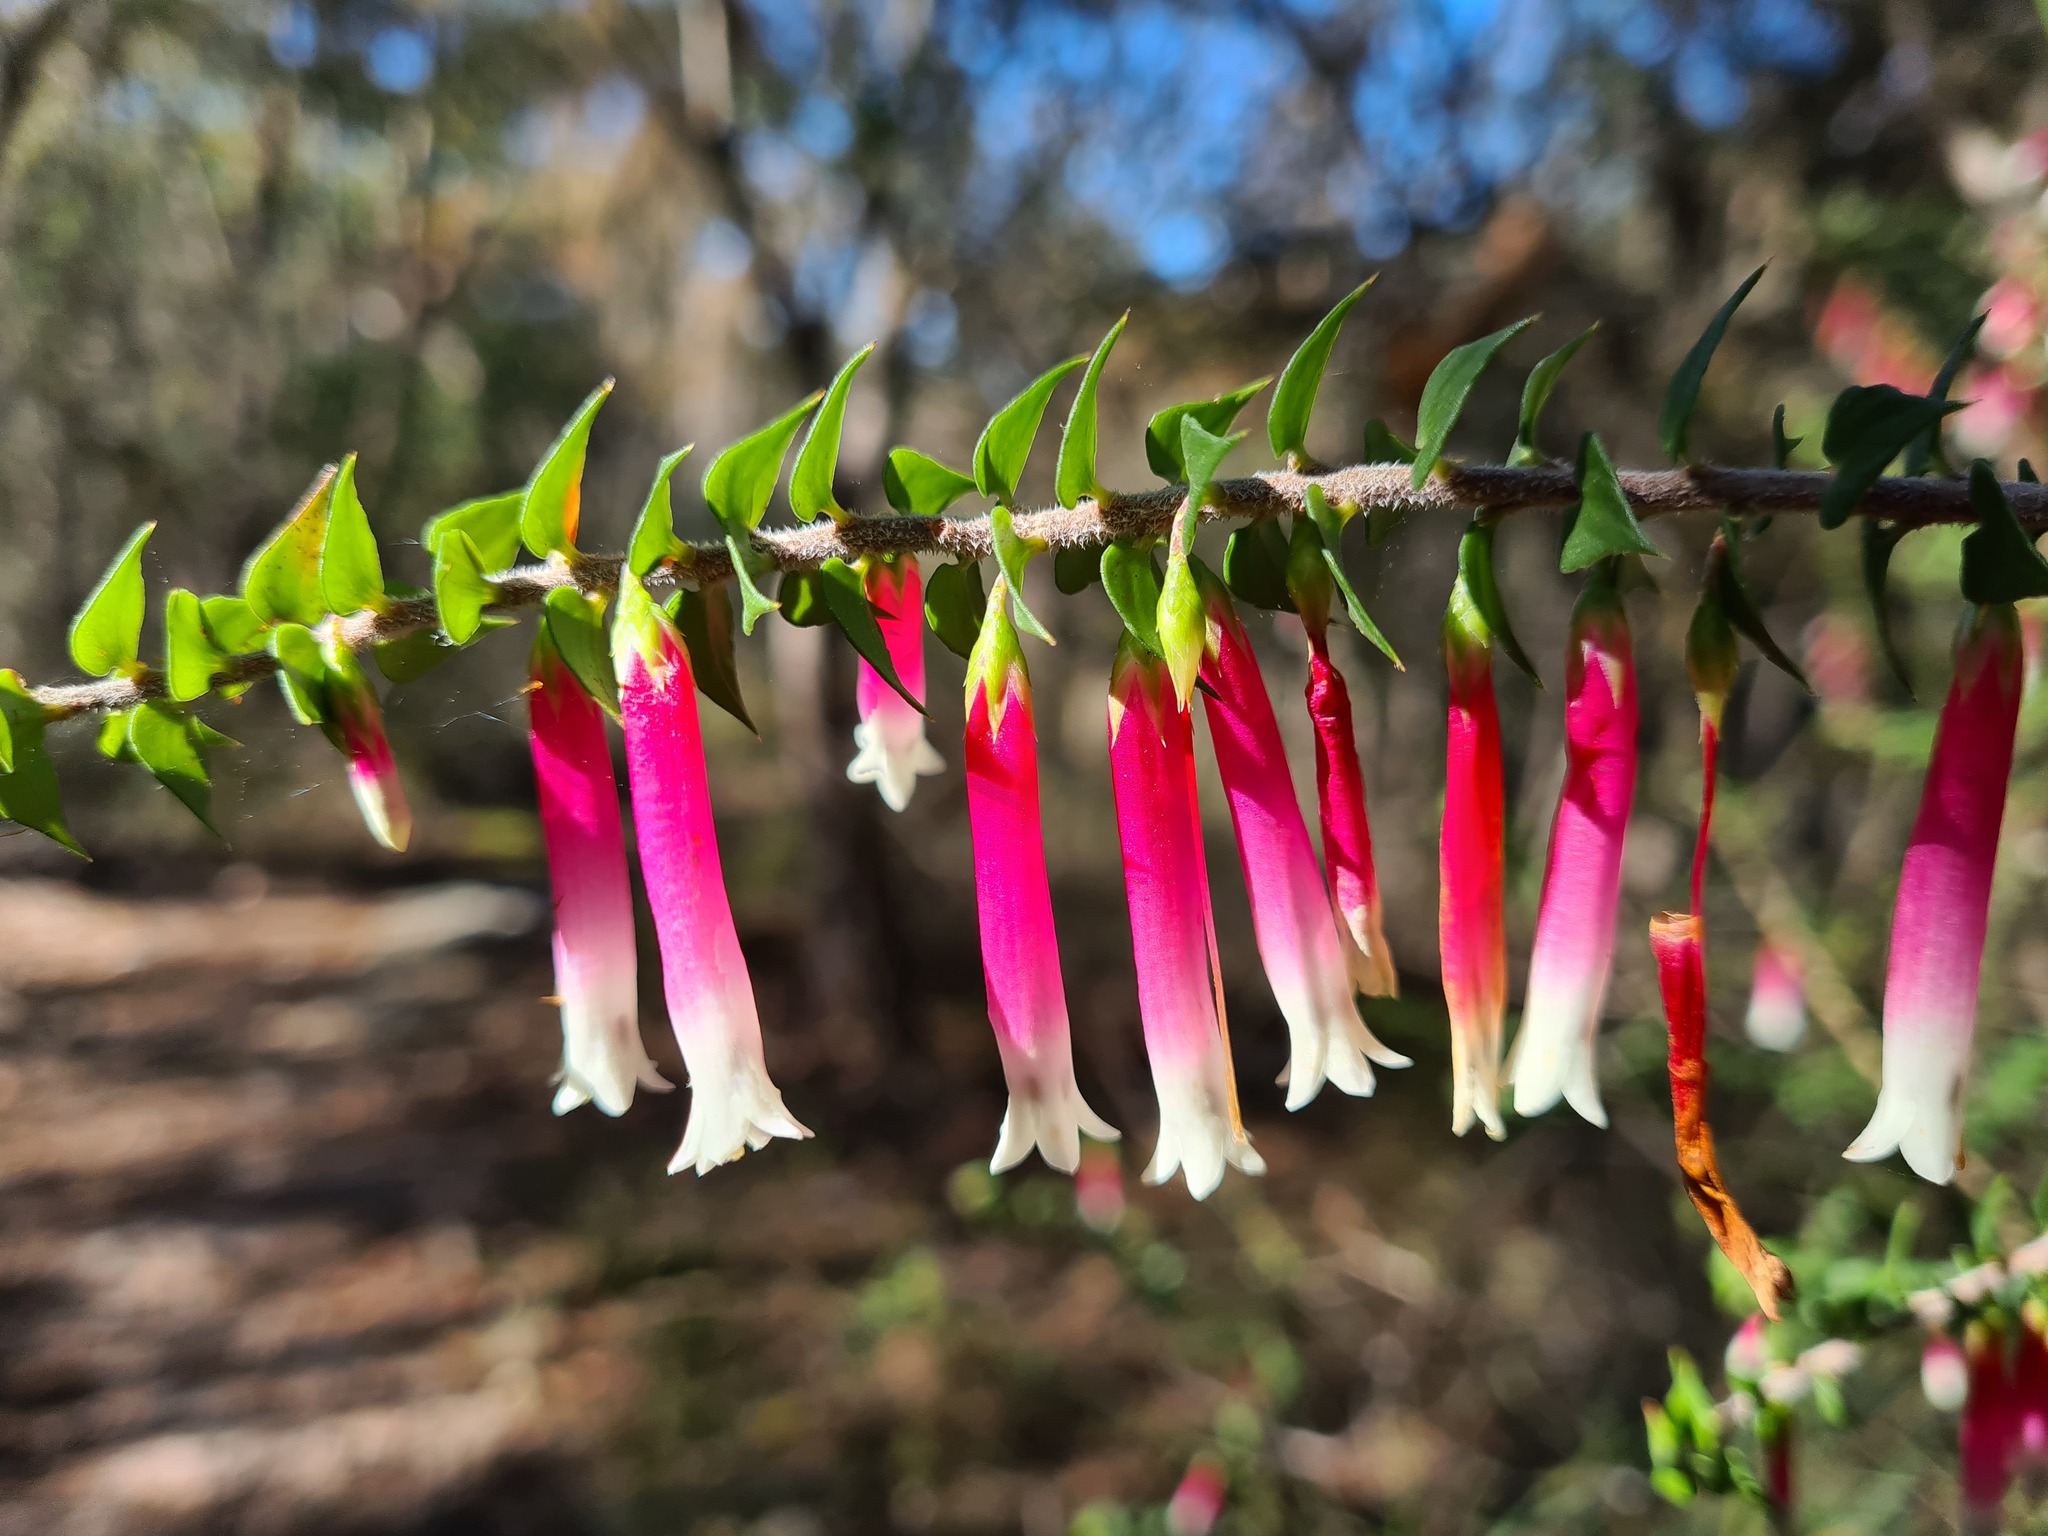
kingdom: Plantae
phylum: Tracheophyta
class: Magnoliopsida
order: Ericales
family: Ericaceae
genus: Epacris
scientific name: Epacris longiflora
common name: Fuchsia-heath
